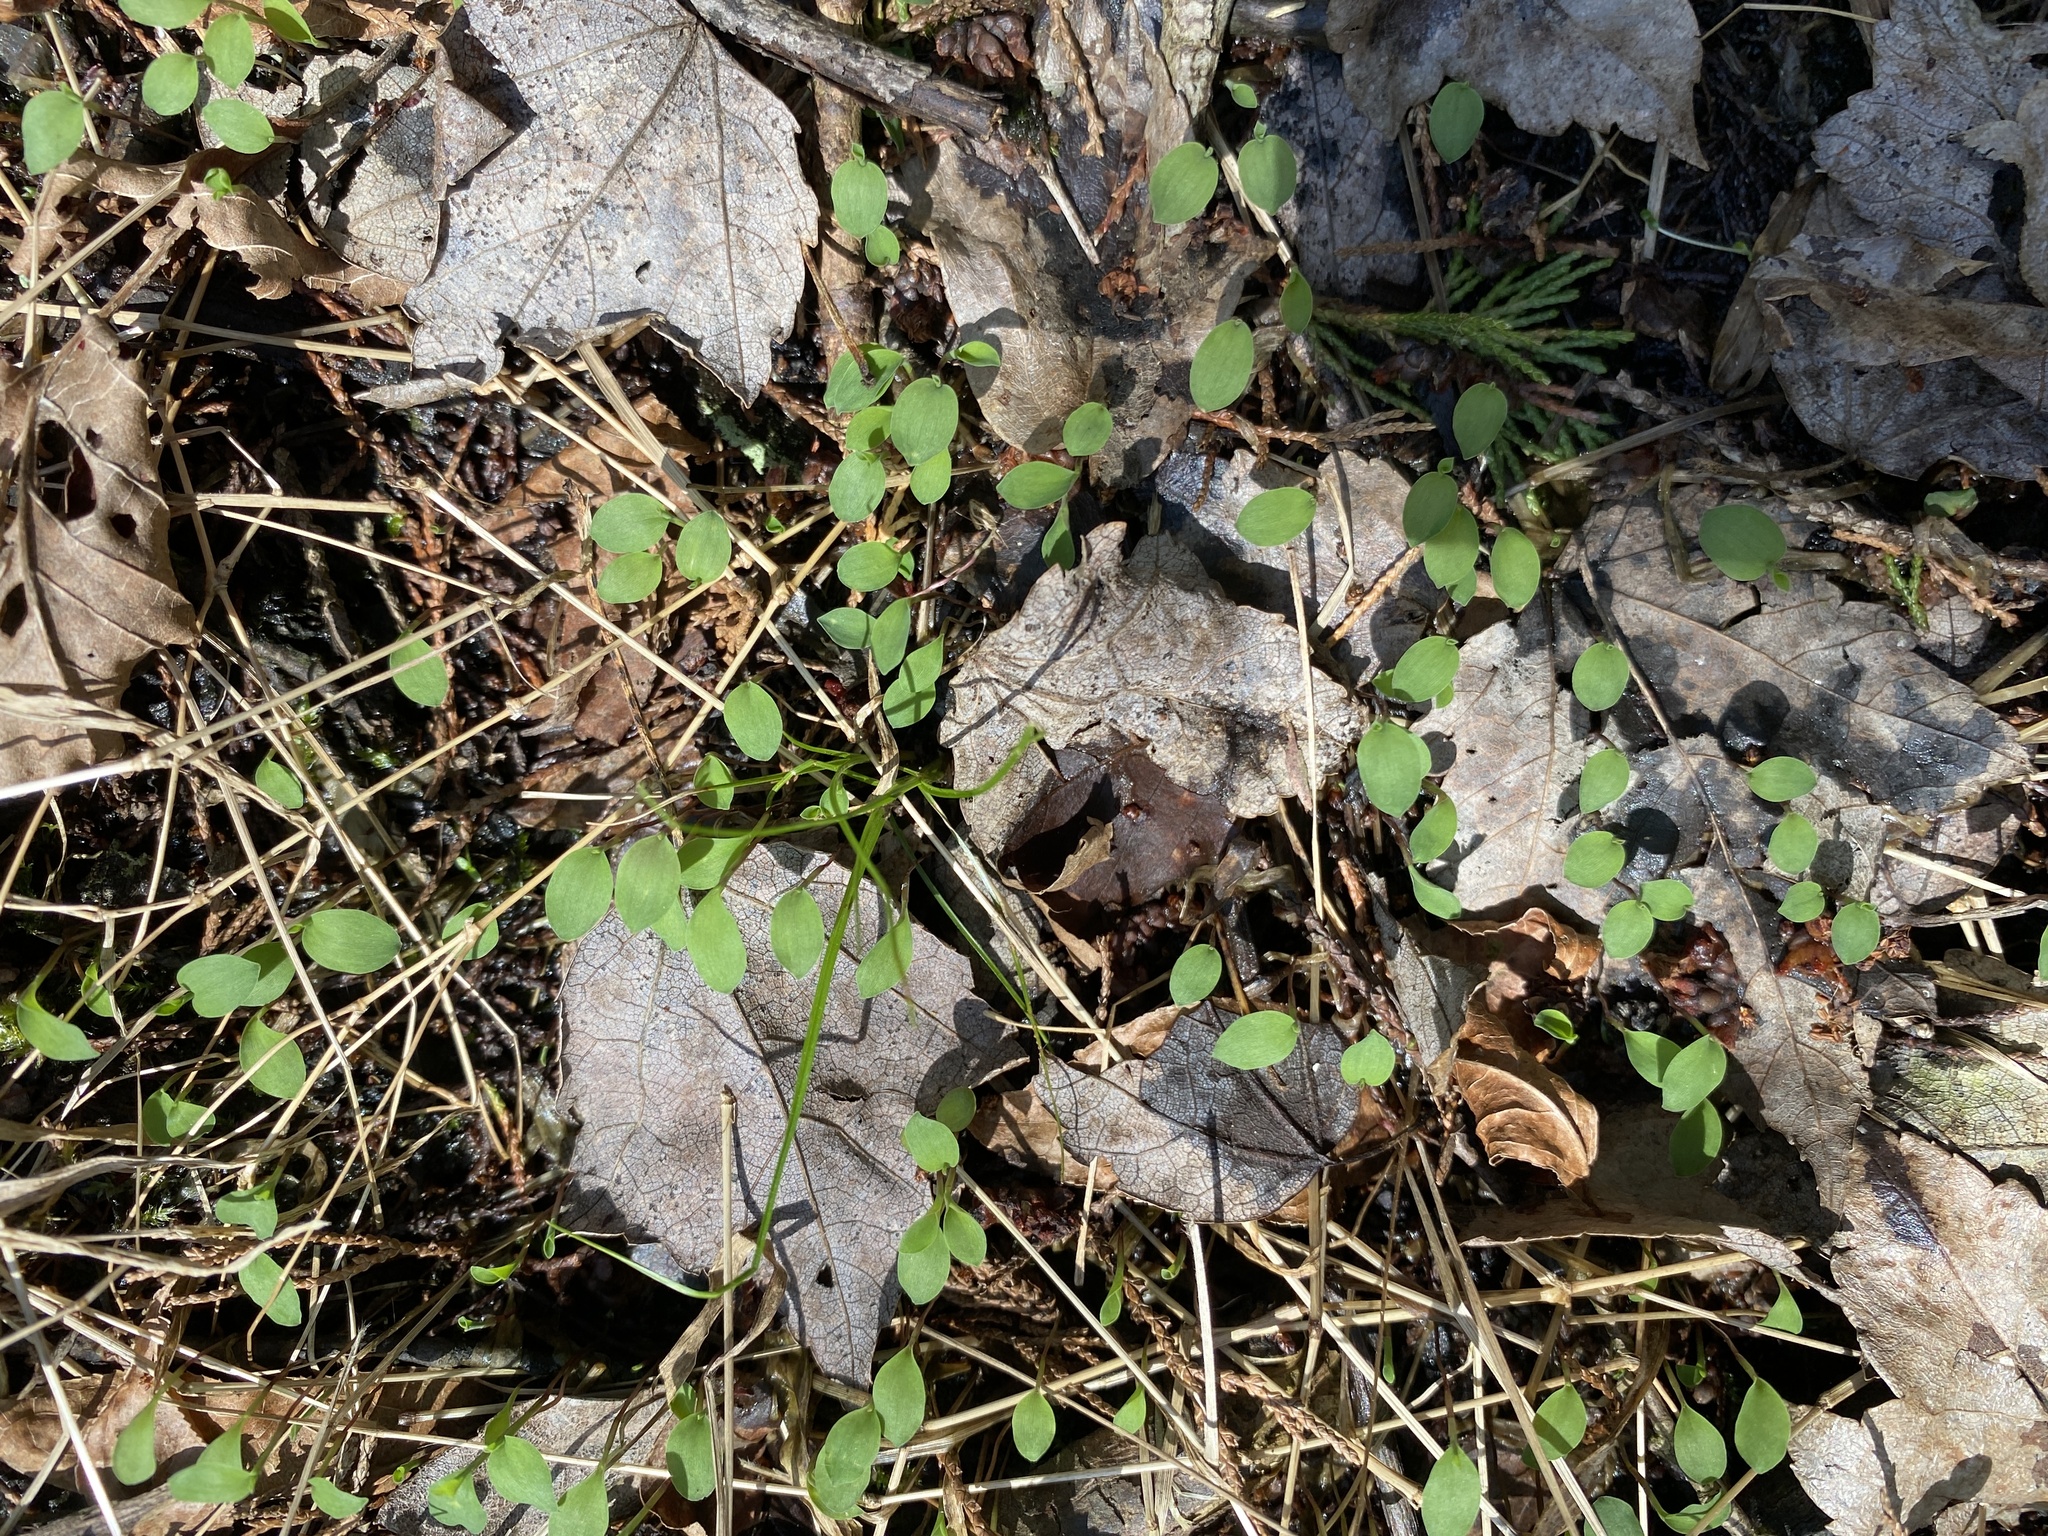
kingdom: Plantae
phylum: Tracheophyta
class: Liliopsida
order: Poales
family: Poaceae
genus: Microstegium
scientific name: Microstegium vimineum
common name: Japanese stiltgrass
